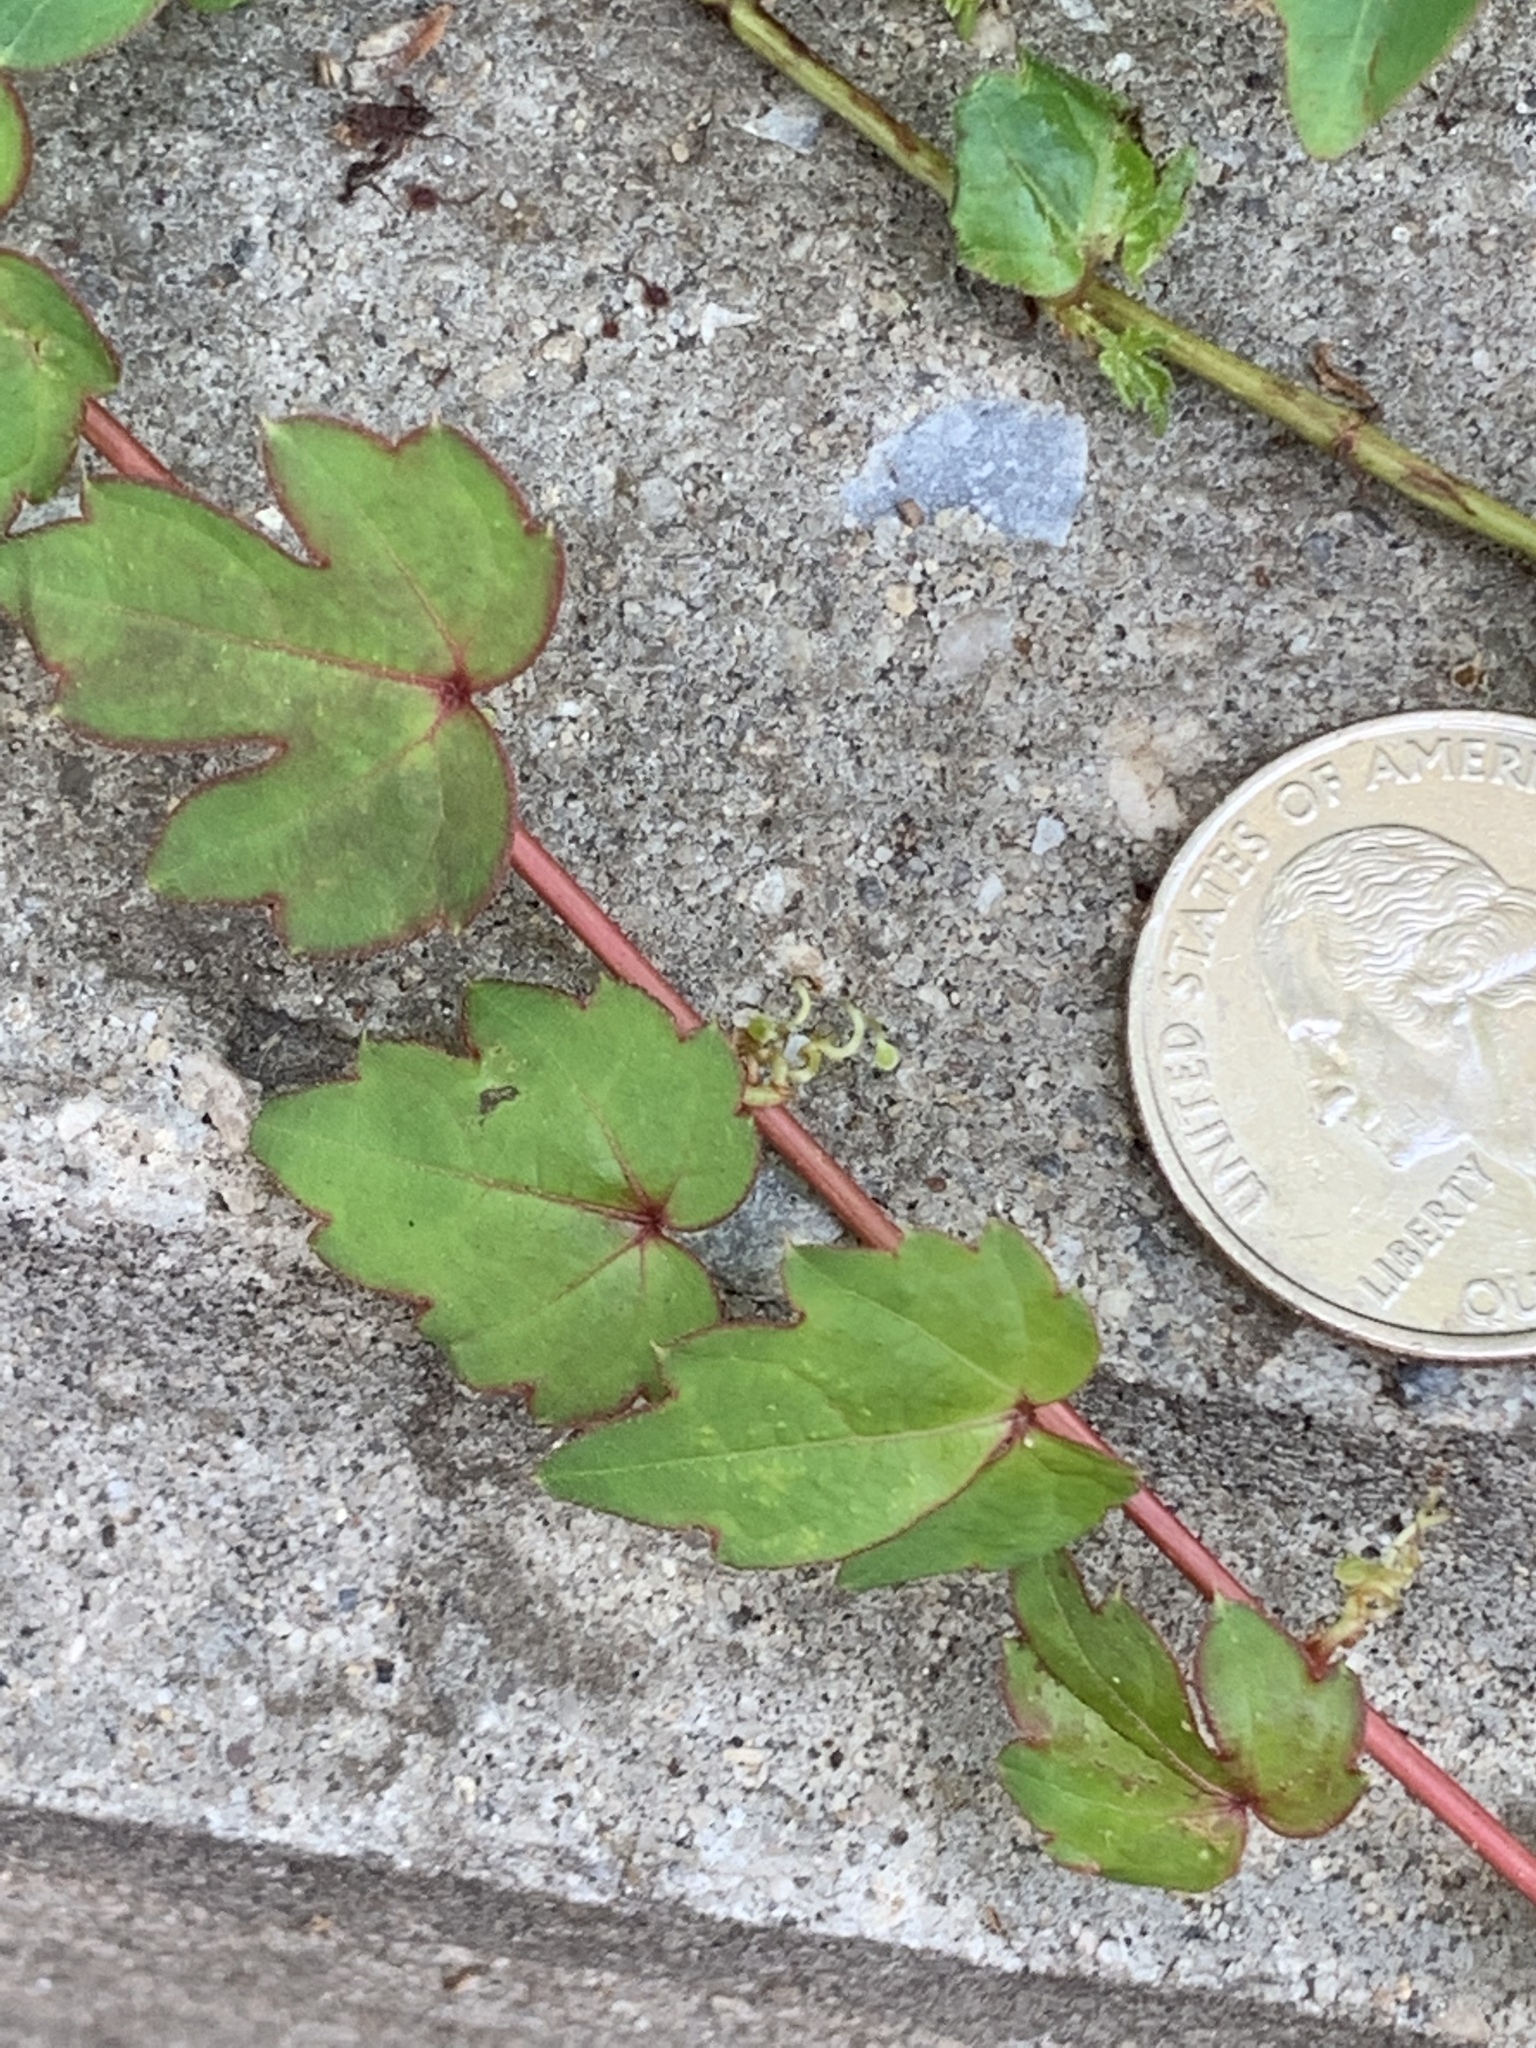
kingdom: Plantae
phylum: Tracheophyta
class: Magnoliopsida
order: Vitales
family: Vitaceae
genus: Parthenocissus
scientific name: Parthenocissus tricuspidata
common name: Boston ivy
